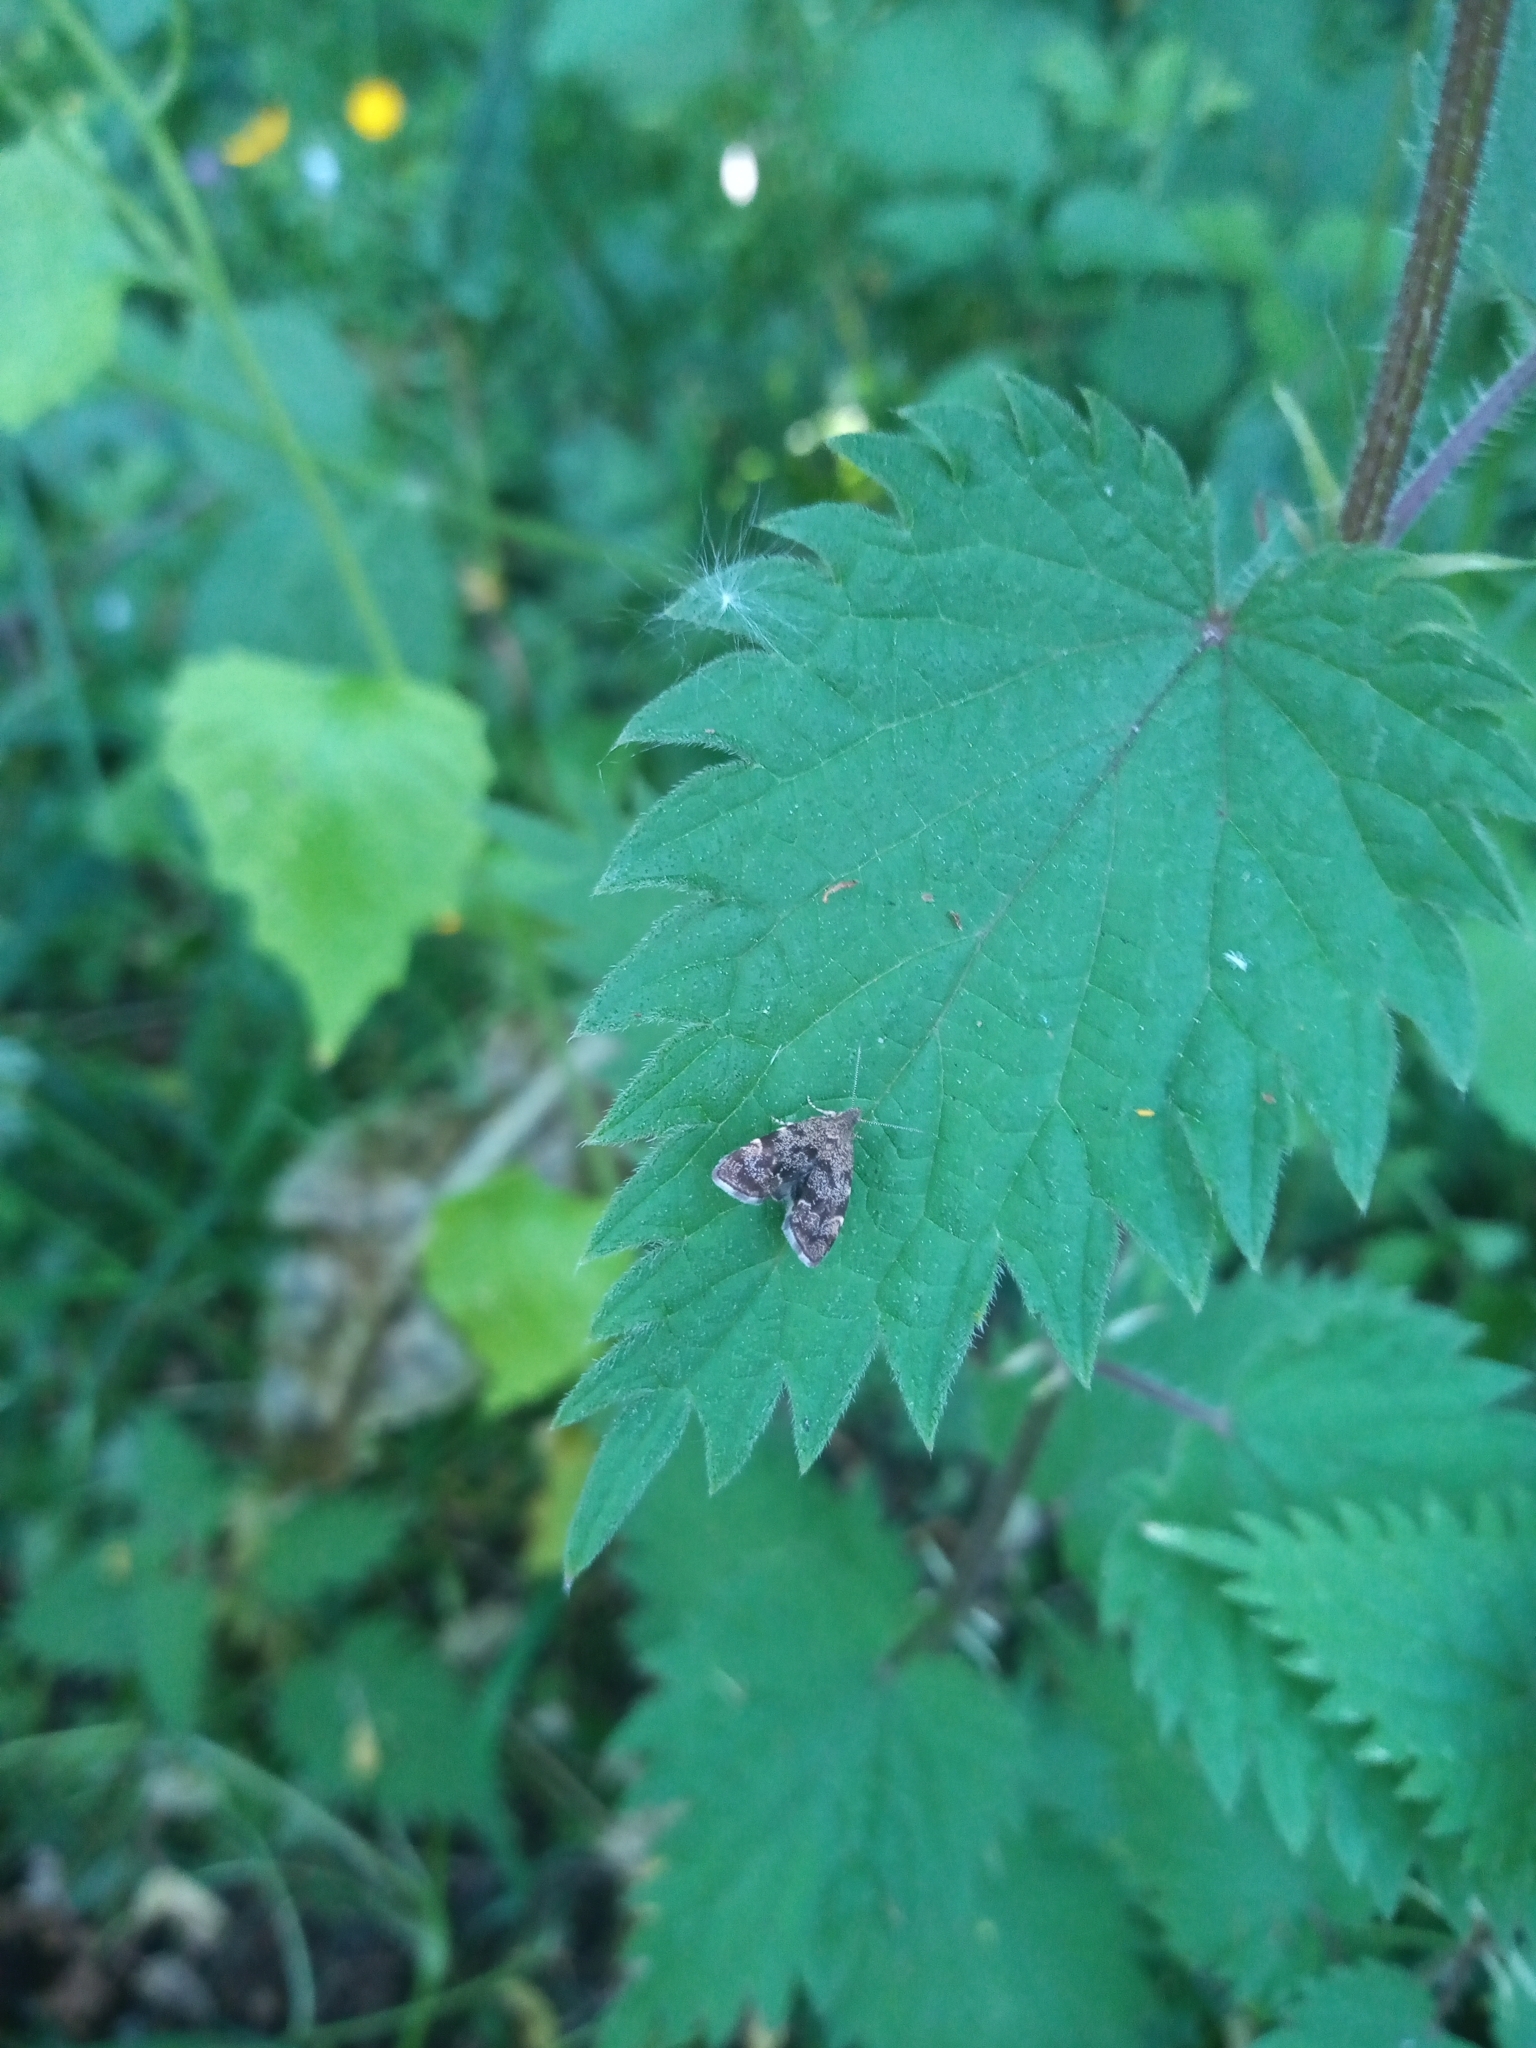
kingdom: Animalia
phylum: Arthropoda
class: Insecta
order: Lepidoptera
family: Choreutidae
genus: Anthophila
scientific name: Anthophila fabriciana
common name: Nettle-tap
